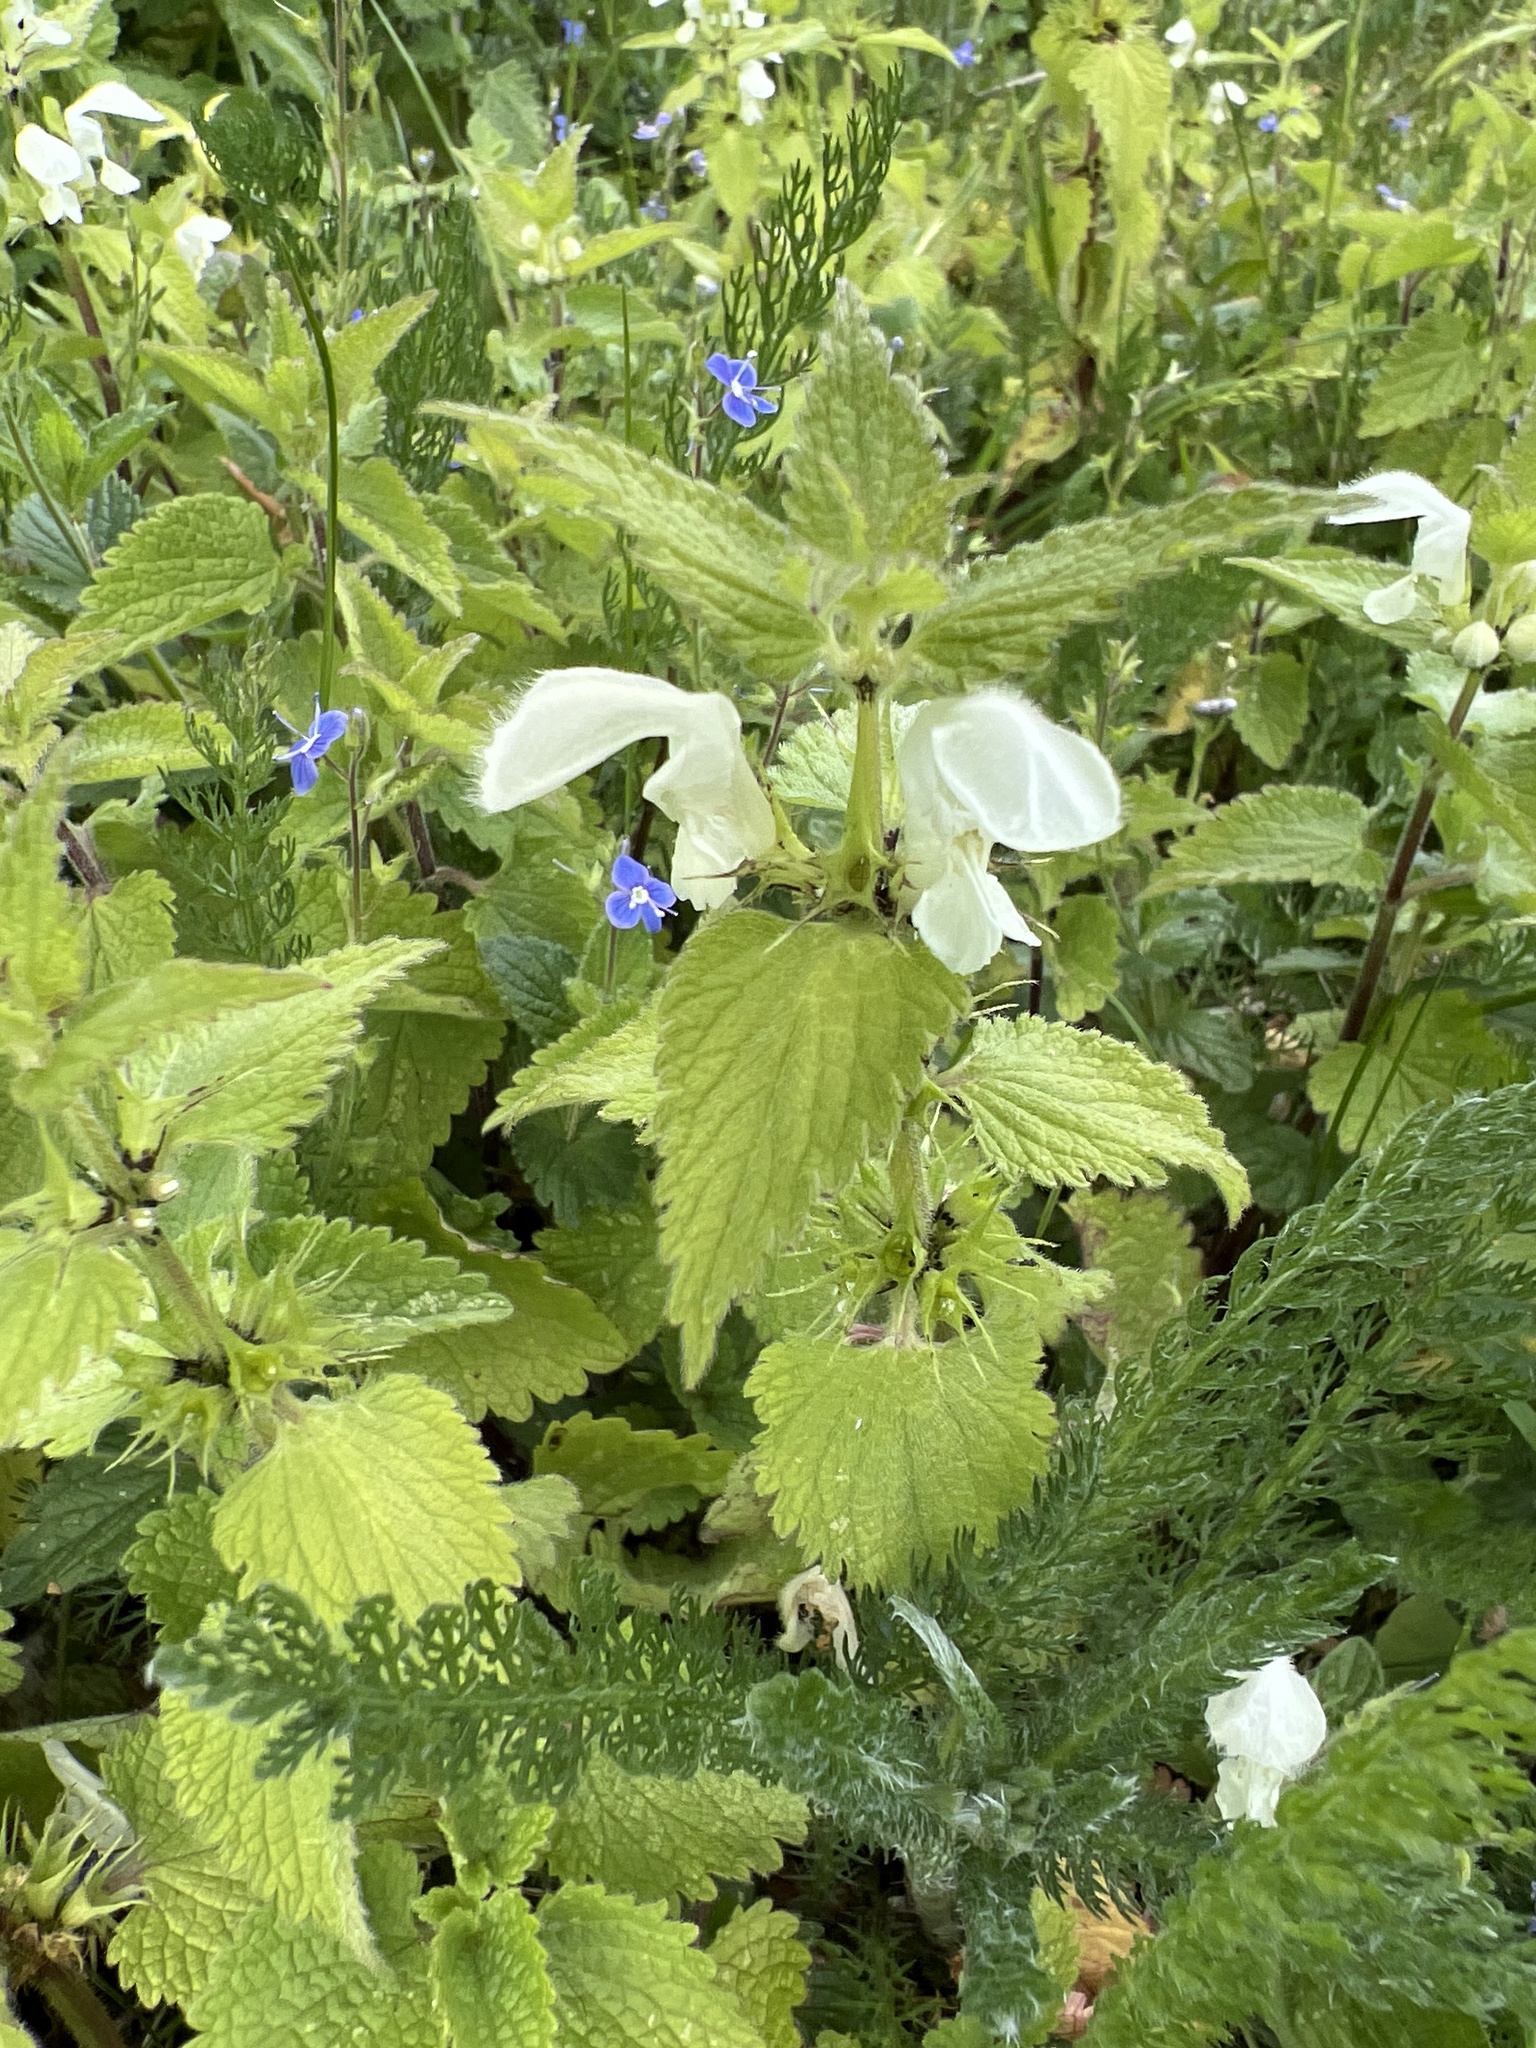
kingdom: Plantae
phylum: Tracheophyta
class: Magnoliopsida
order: Lamiales
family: Lamiaceae
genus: Lamium
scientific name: Lamium album
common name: White dead-nettle
